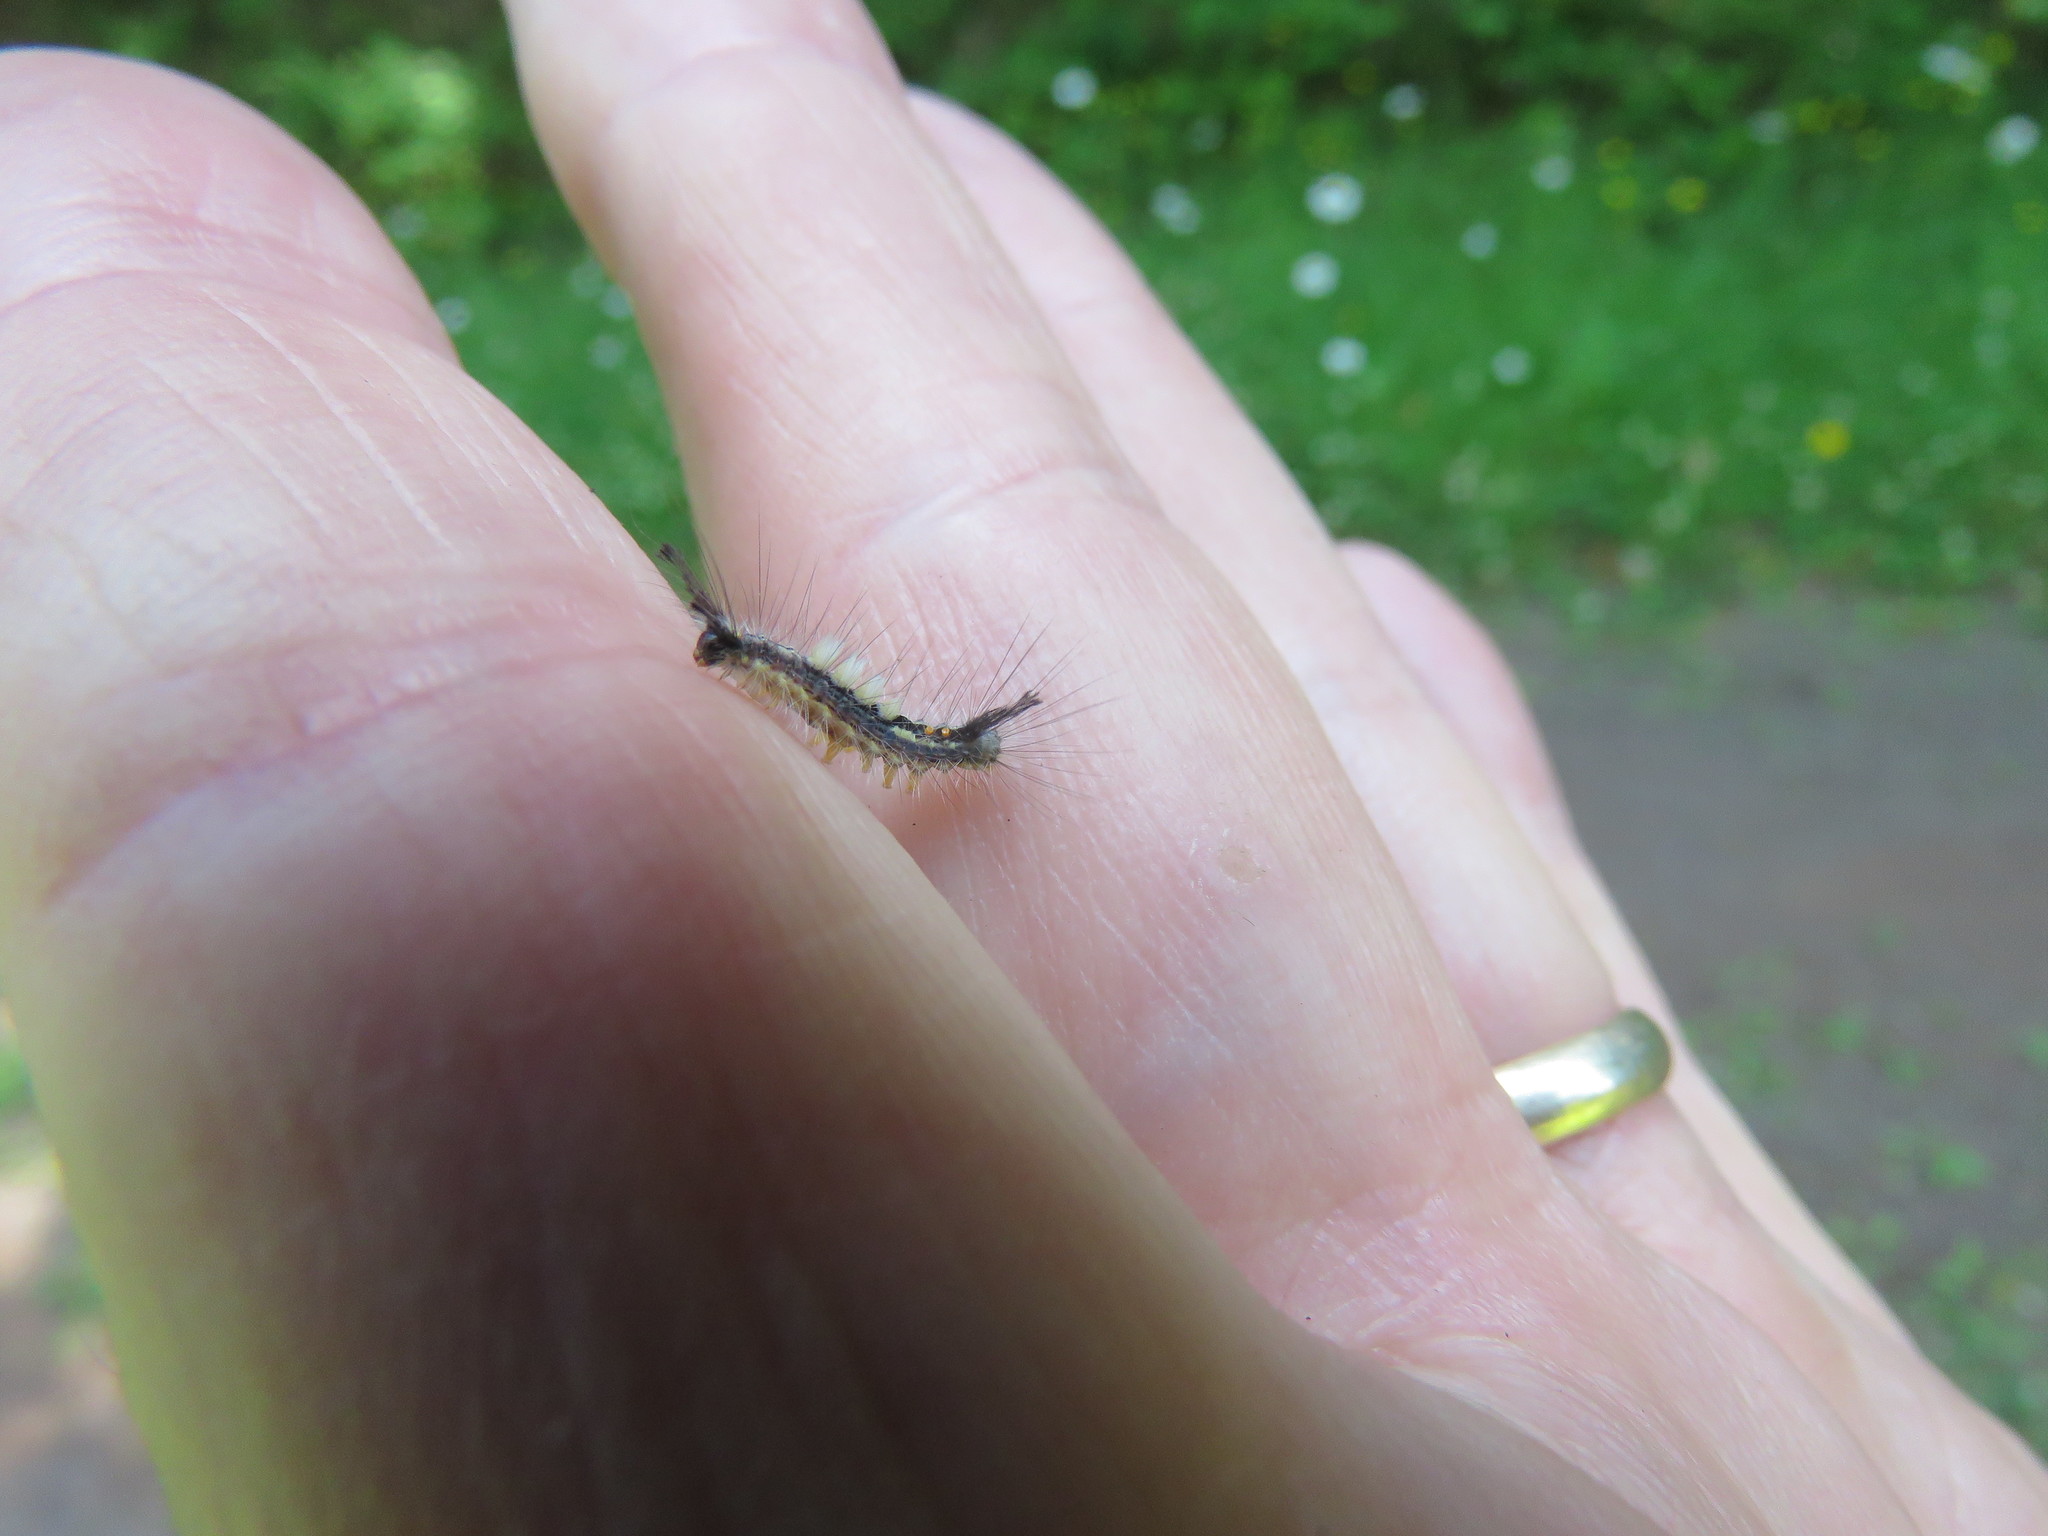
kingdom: Animalia
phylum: Arthropoda
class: Insecta
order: Lepidoptera
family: Erebidae
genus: Orgyia
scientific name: Orgyia leucostigma
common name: White-marked tussock moth
